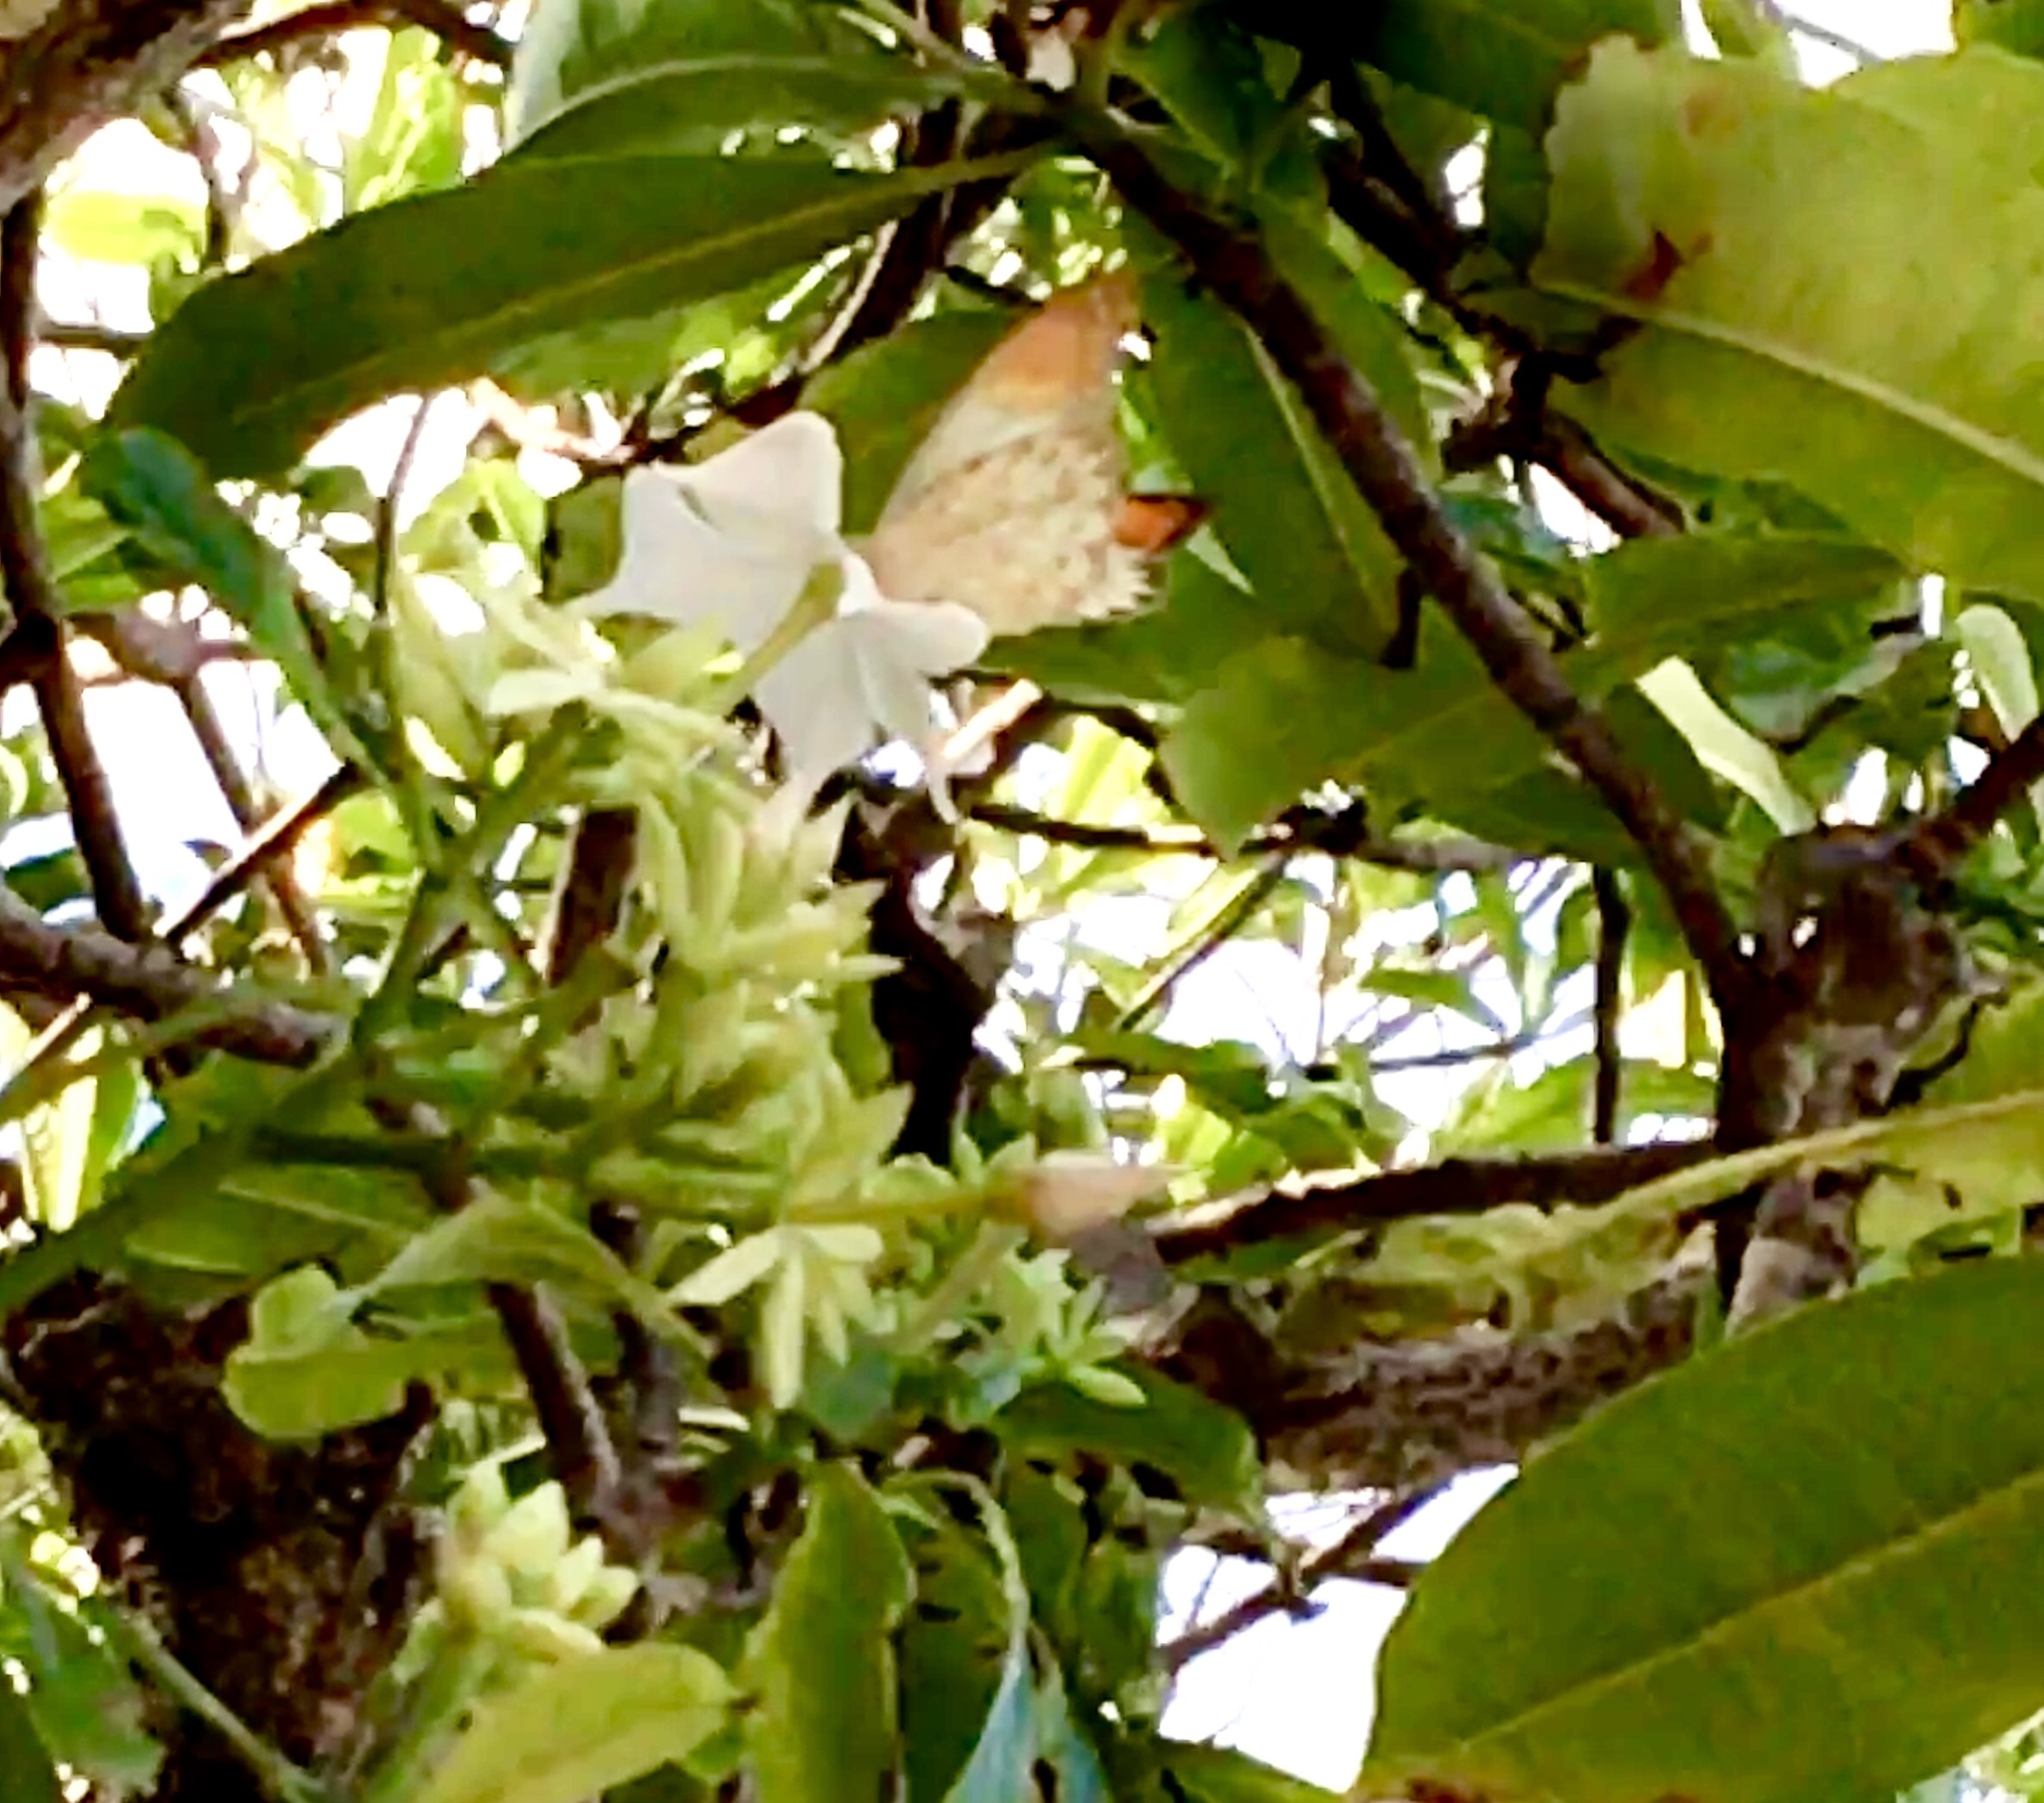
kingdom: Animalia
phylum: Arthropoda
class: Insecta
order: Lepidoptera
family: Pieridae
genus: Hebomoia
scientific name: Hebomoia glaucippe
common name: Great orange tip
